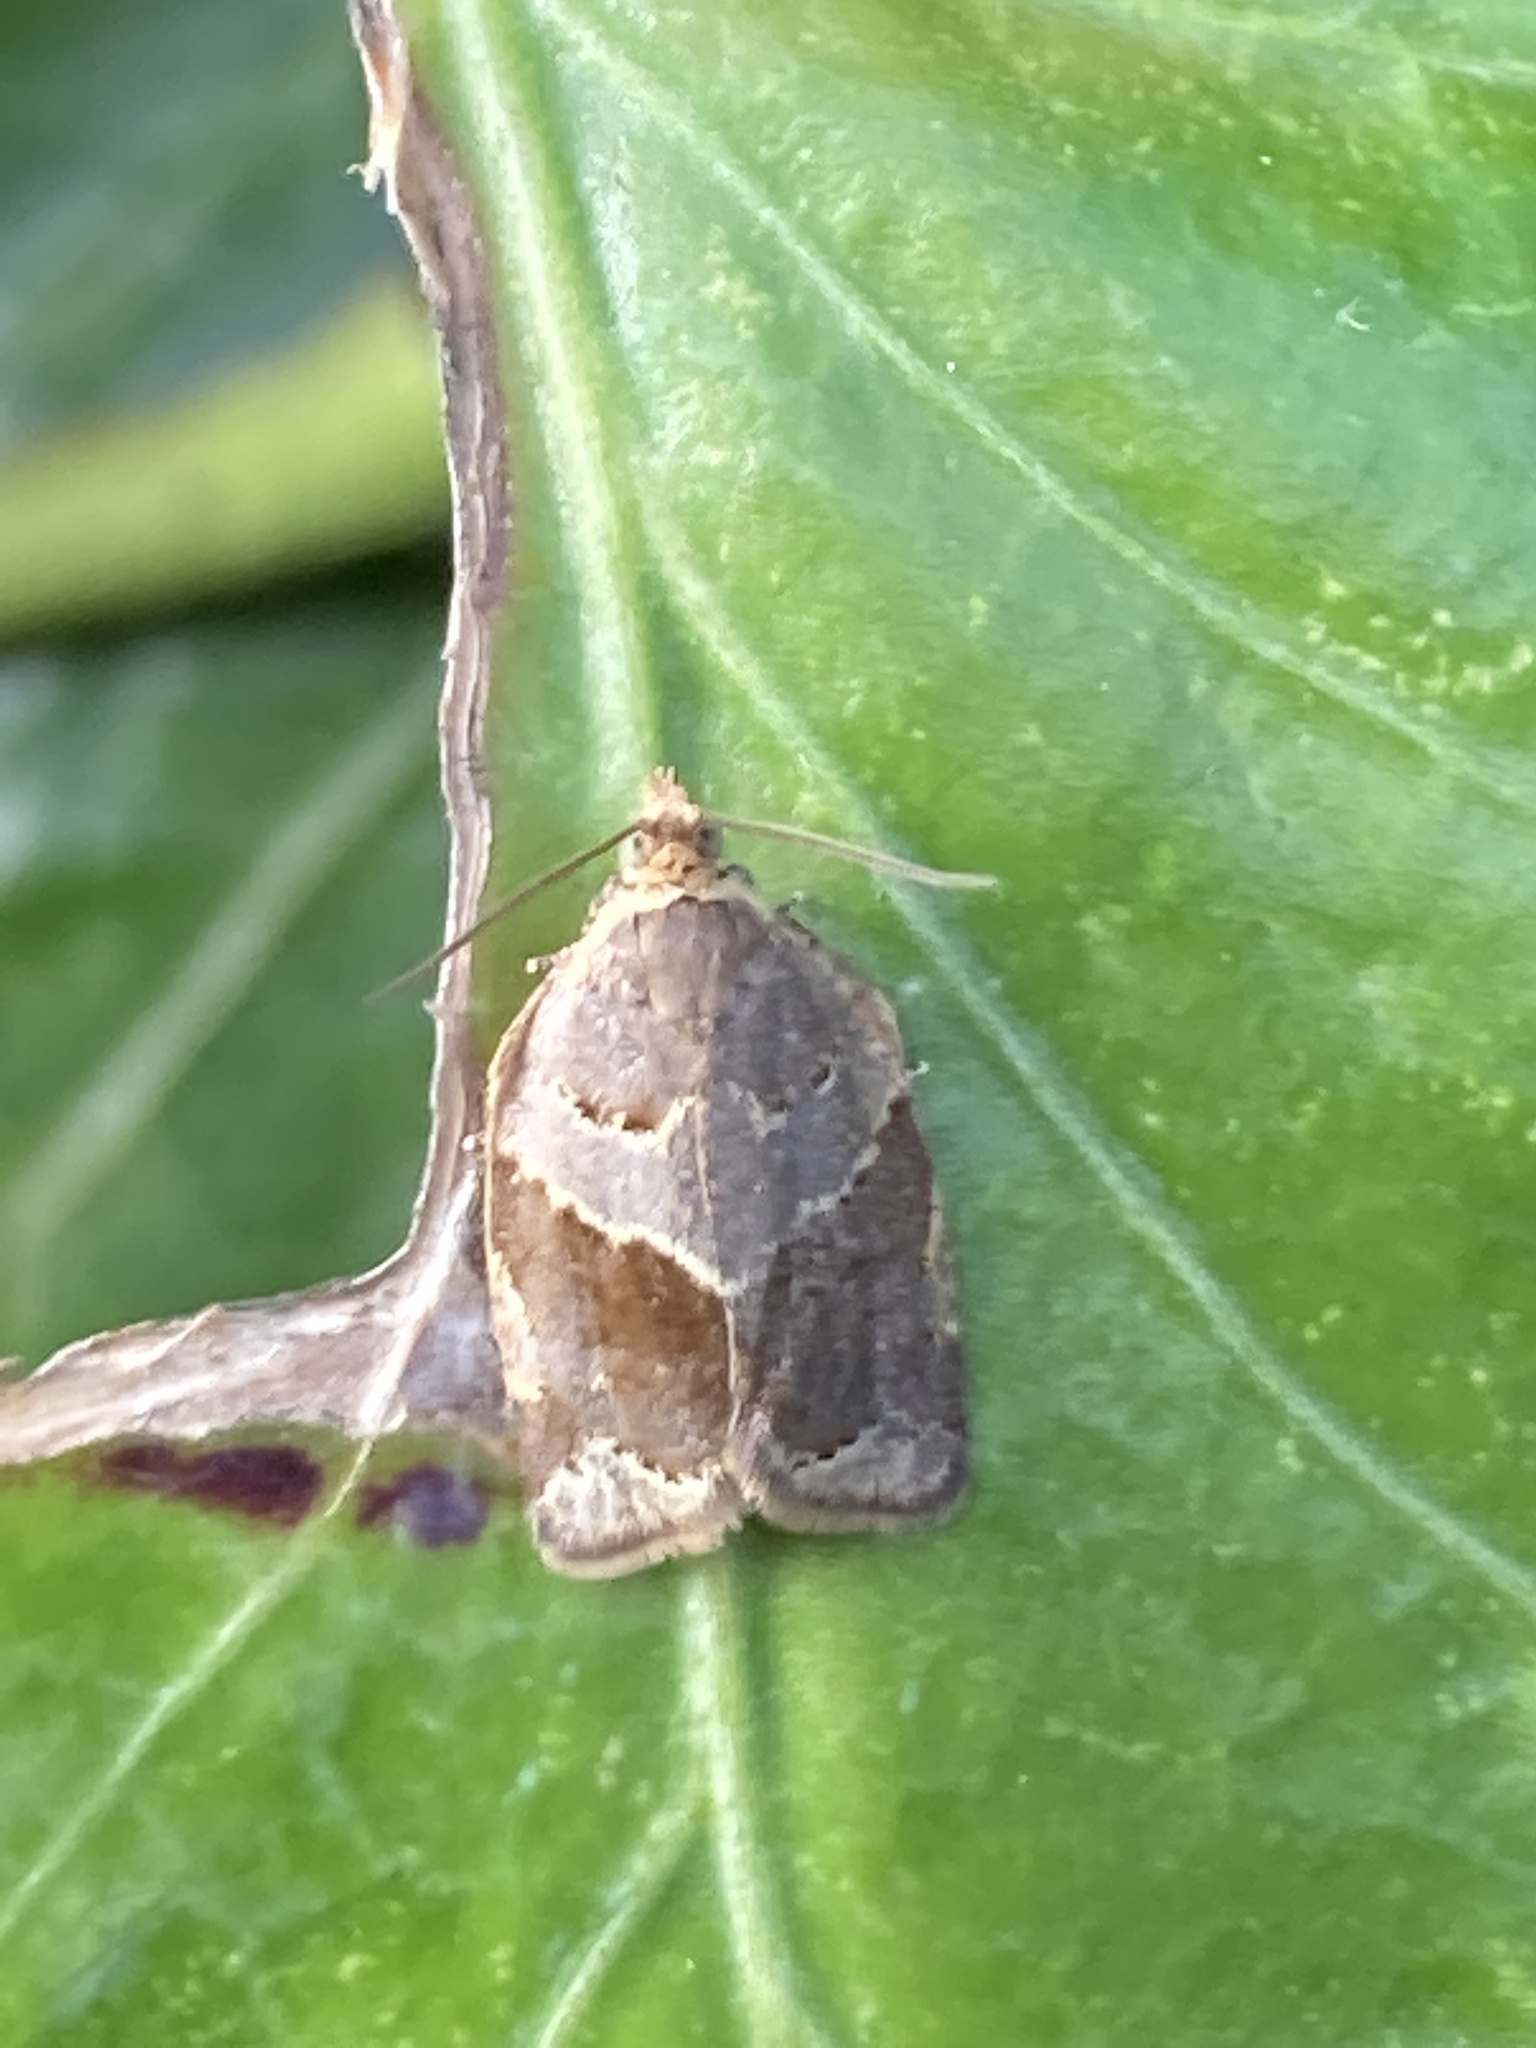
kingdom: Animalia
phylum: Arthropoda
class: Insecta
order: Lepidoptera
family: Tortricidae
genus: Clepsis
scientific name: Clepsis dumicolana
